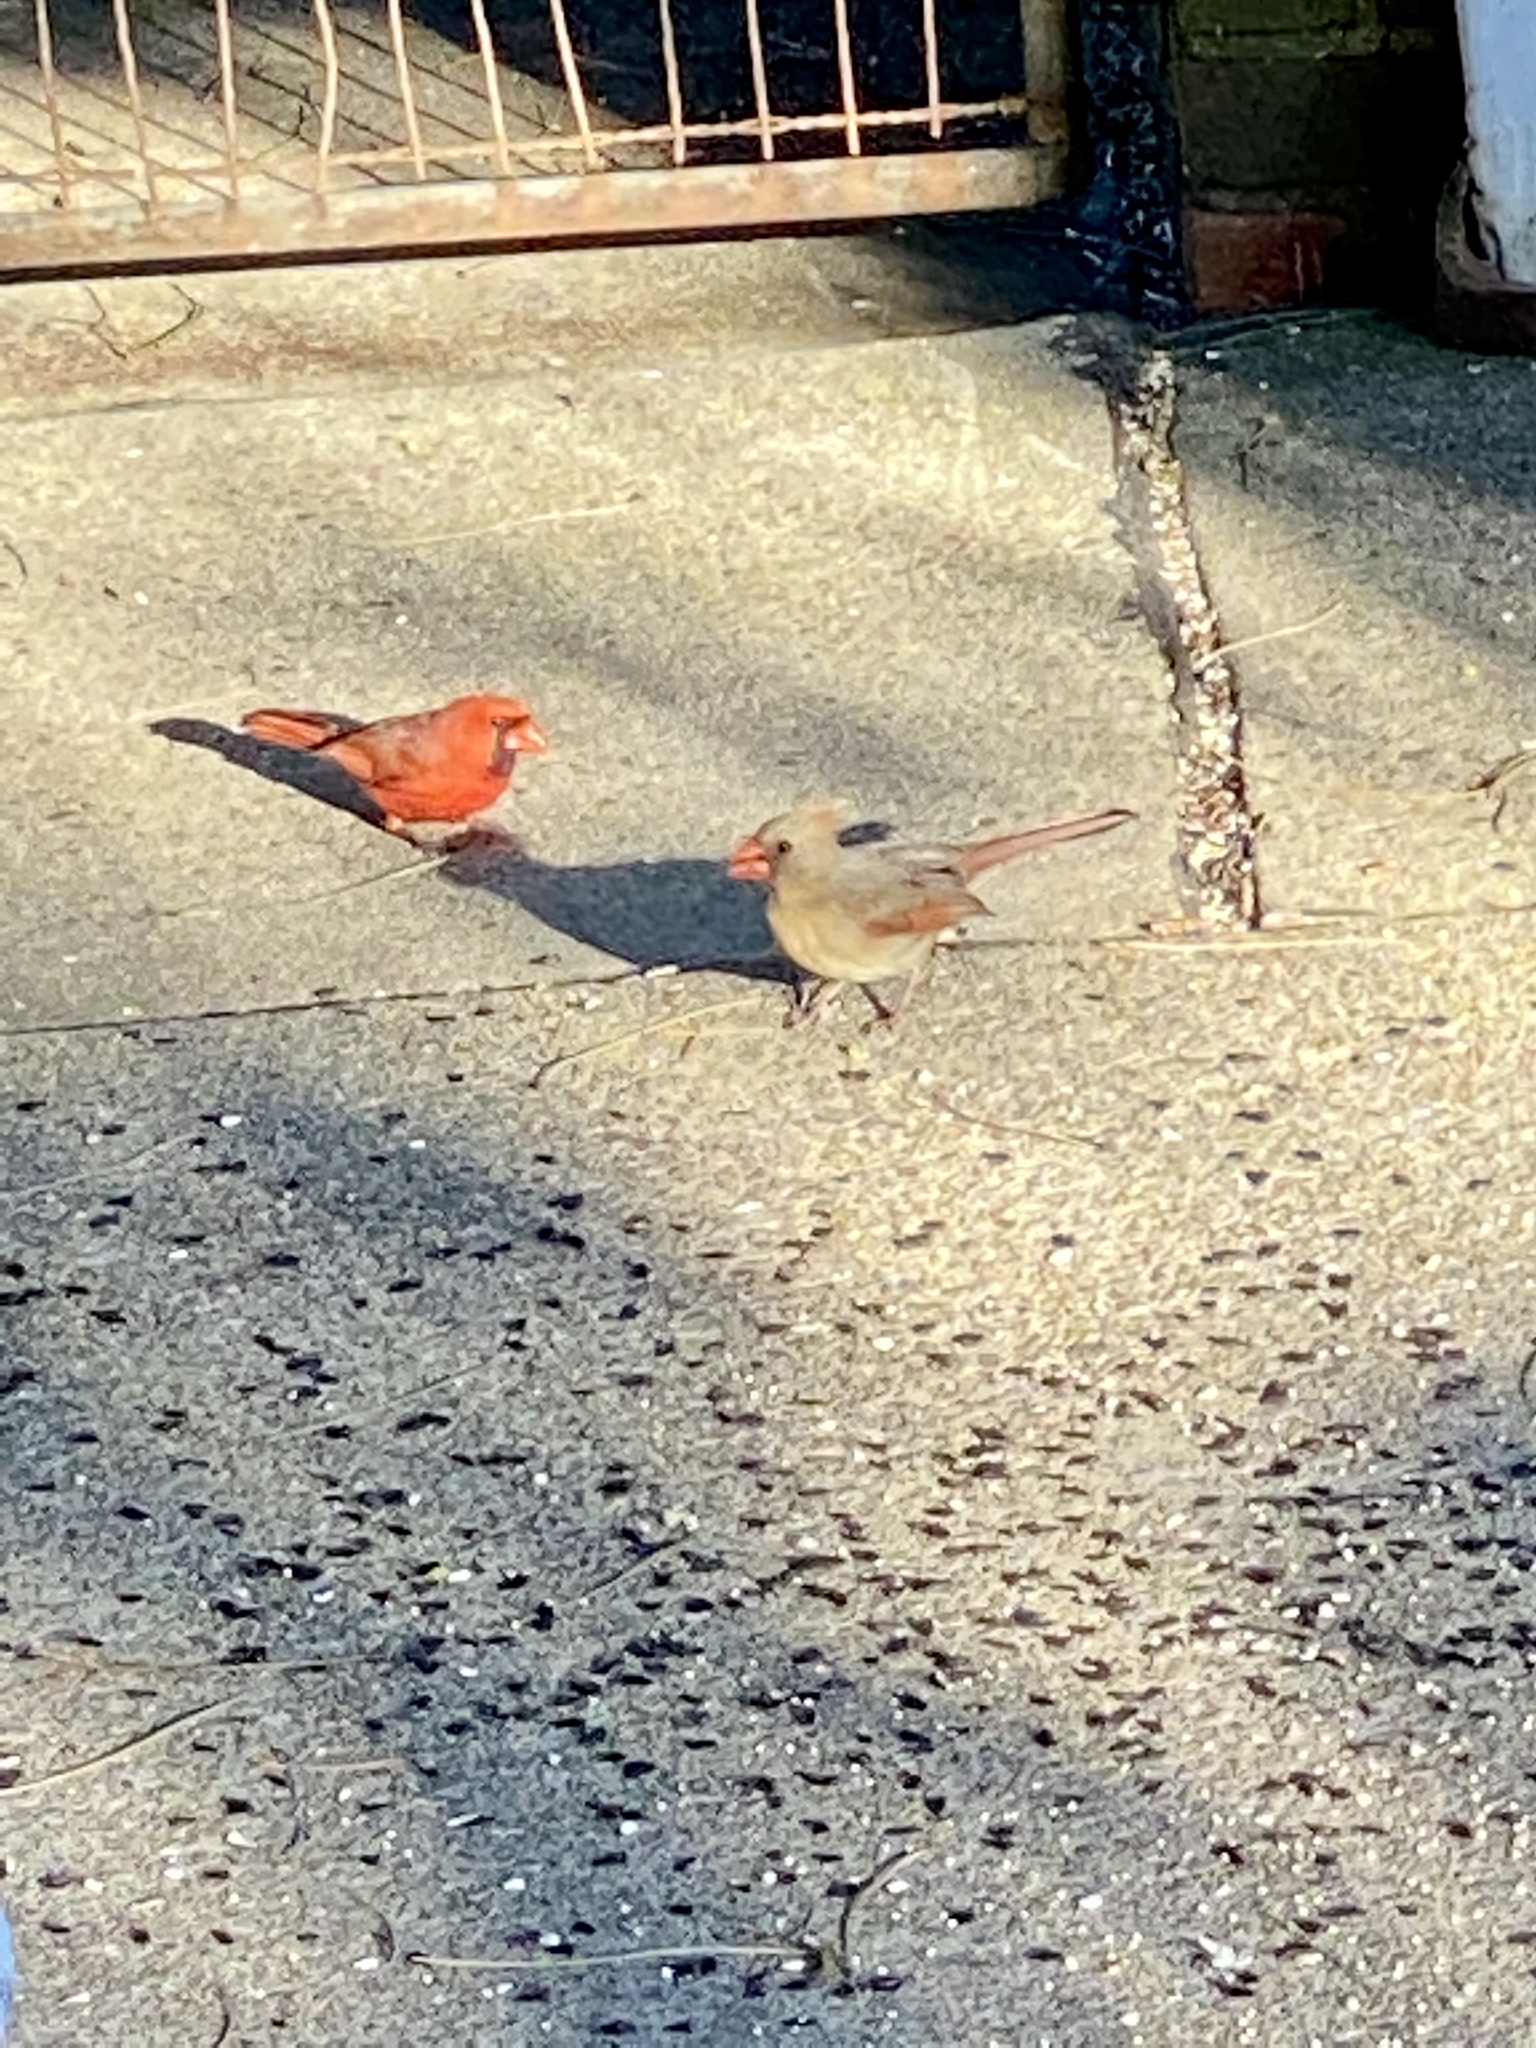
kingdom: Animalia
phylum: Chordata
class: Aves
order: Passeriformes
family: Cardinalidae
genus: Cardinalis
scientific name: Cardinalis cardinalis
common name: Northern cardinal
